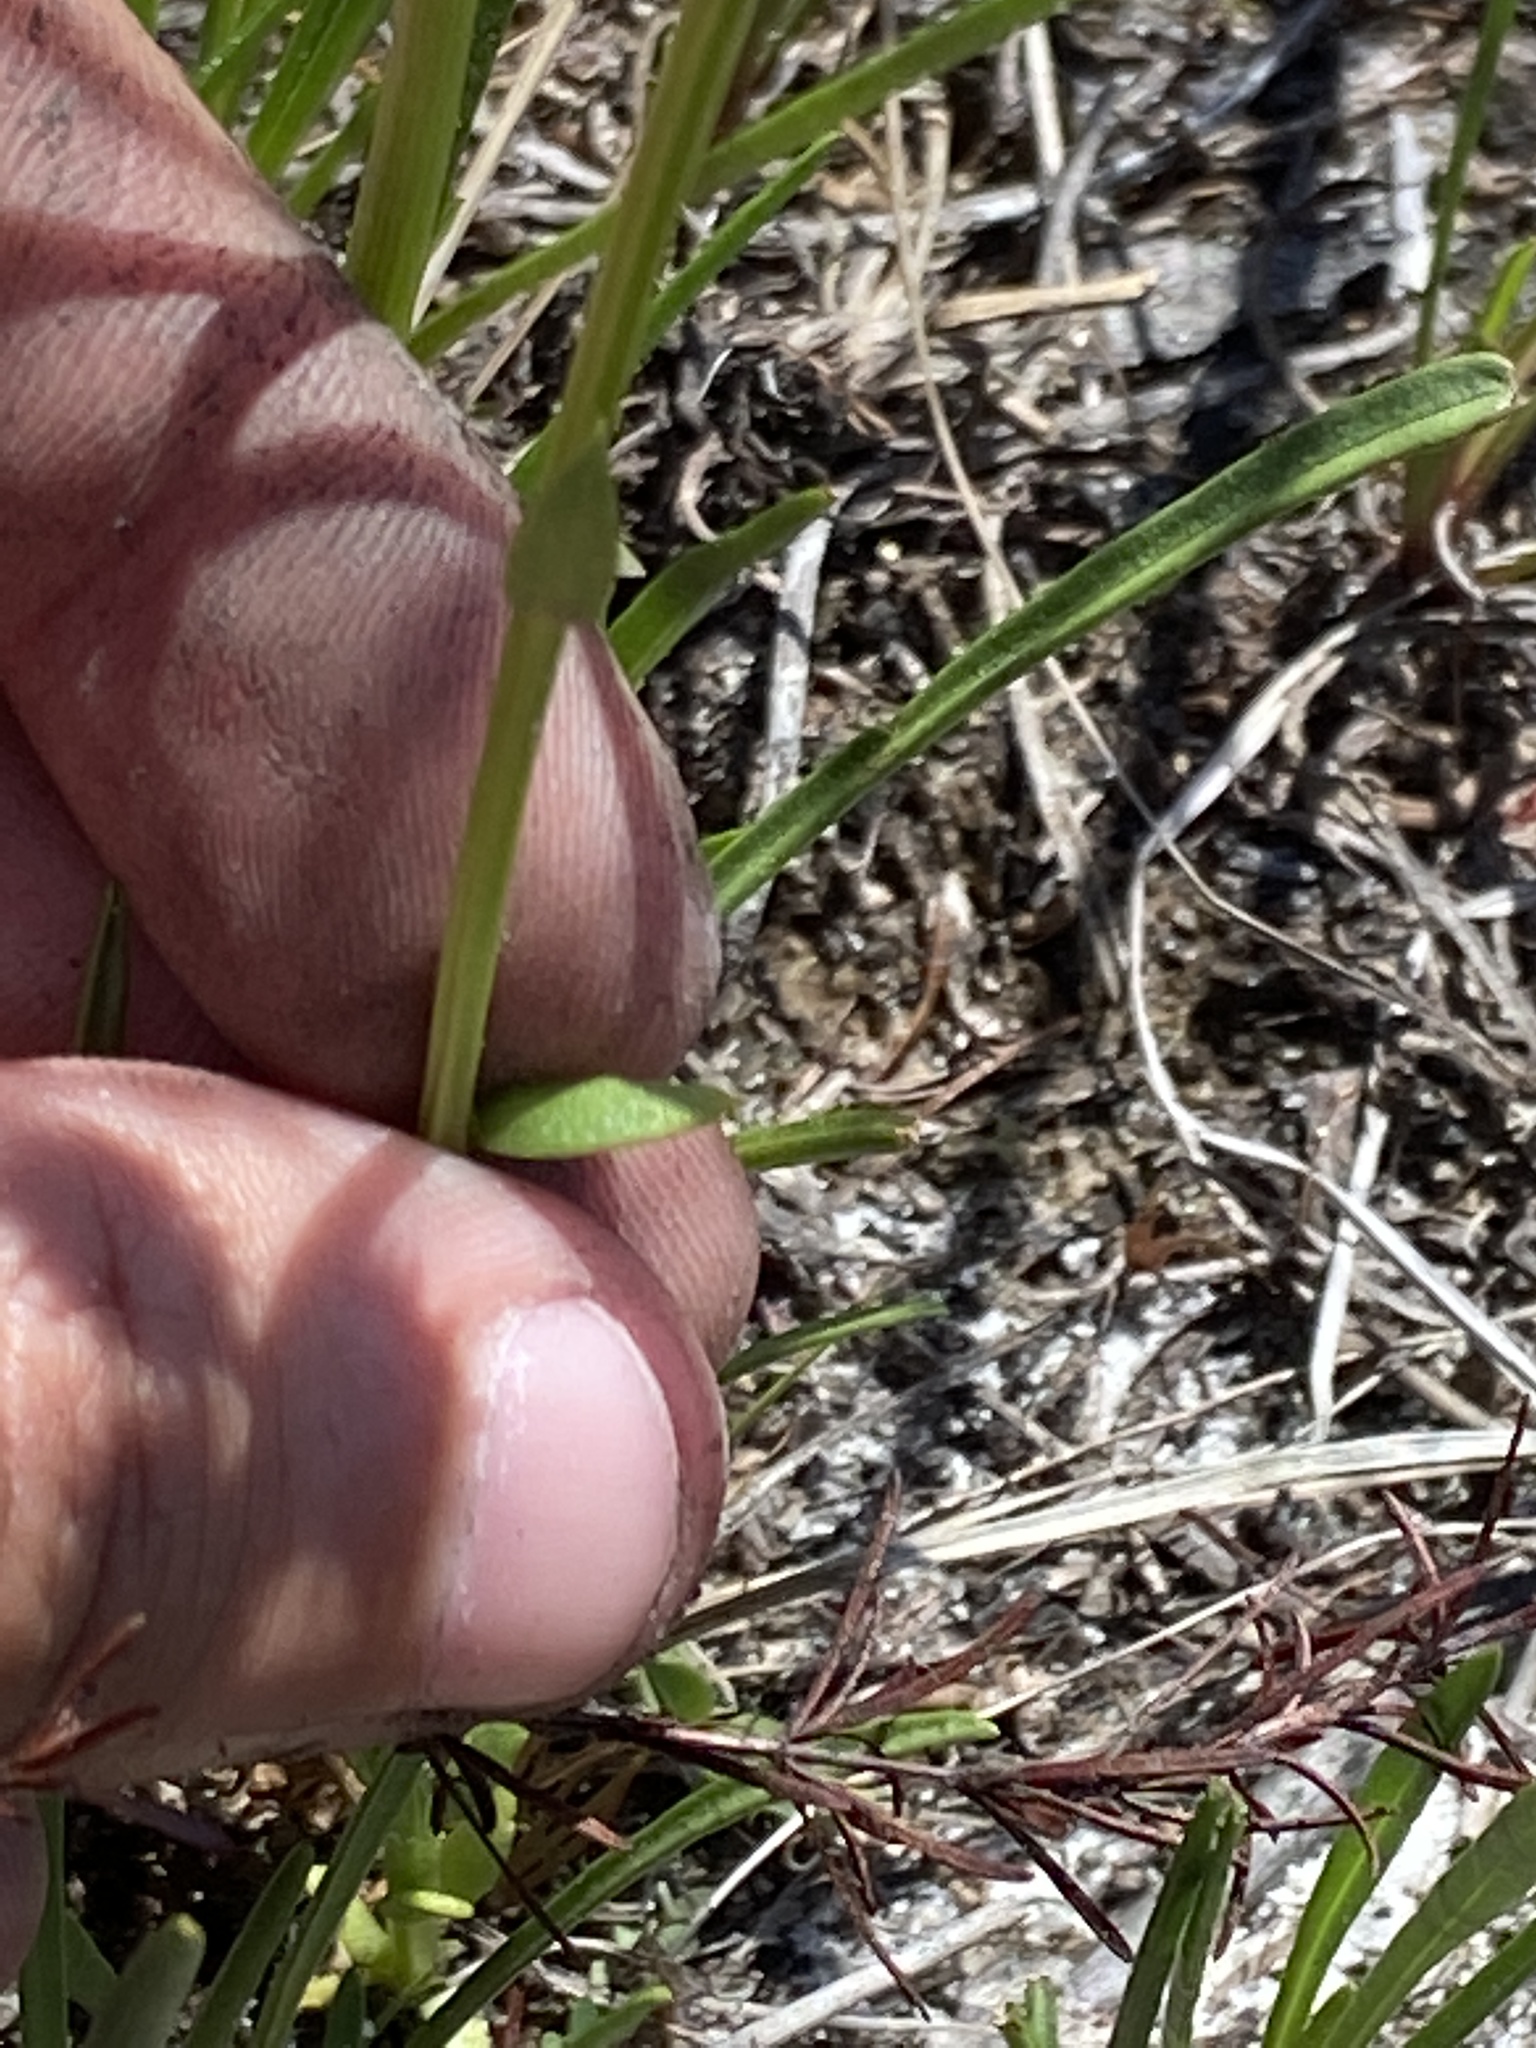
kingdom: Plantae
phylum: Tracheophyta
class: Magnoliopsida
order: Fabales
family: Polygalaceae
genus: Polygala
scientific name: Polygala baldwinii
